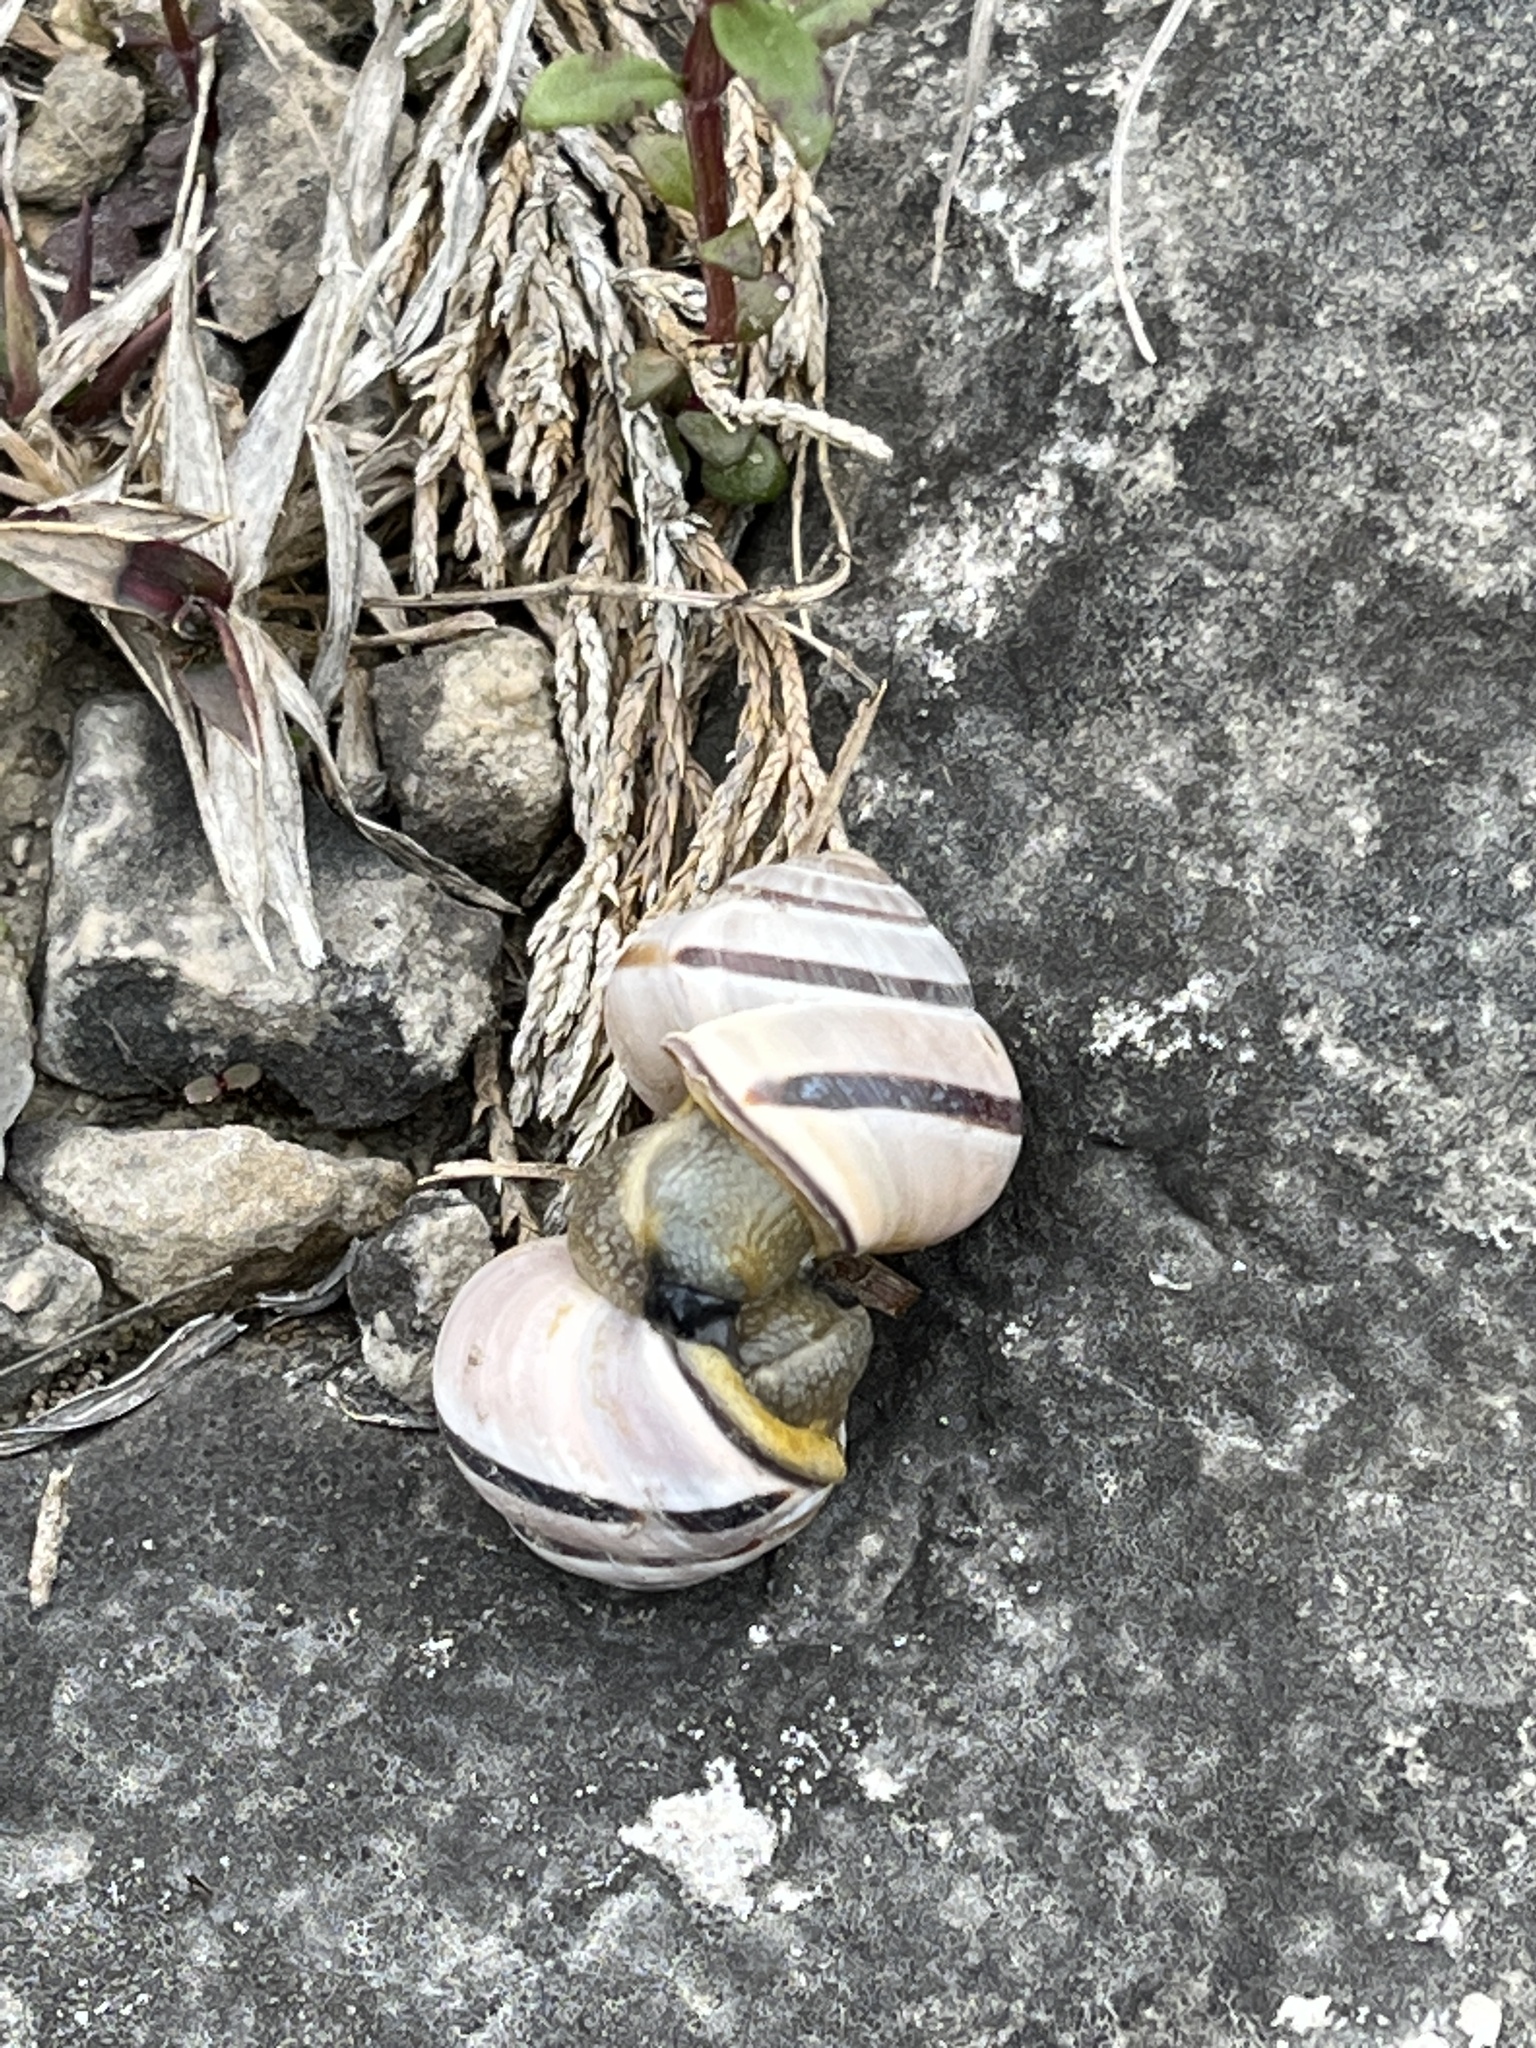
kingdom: Animalia
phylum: Mollusca
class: Gastropoda
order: Stylommatophora
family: Helicidae
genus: Cepaea
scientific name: Cepaea nemoralis
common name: Grovesnail
